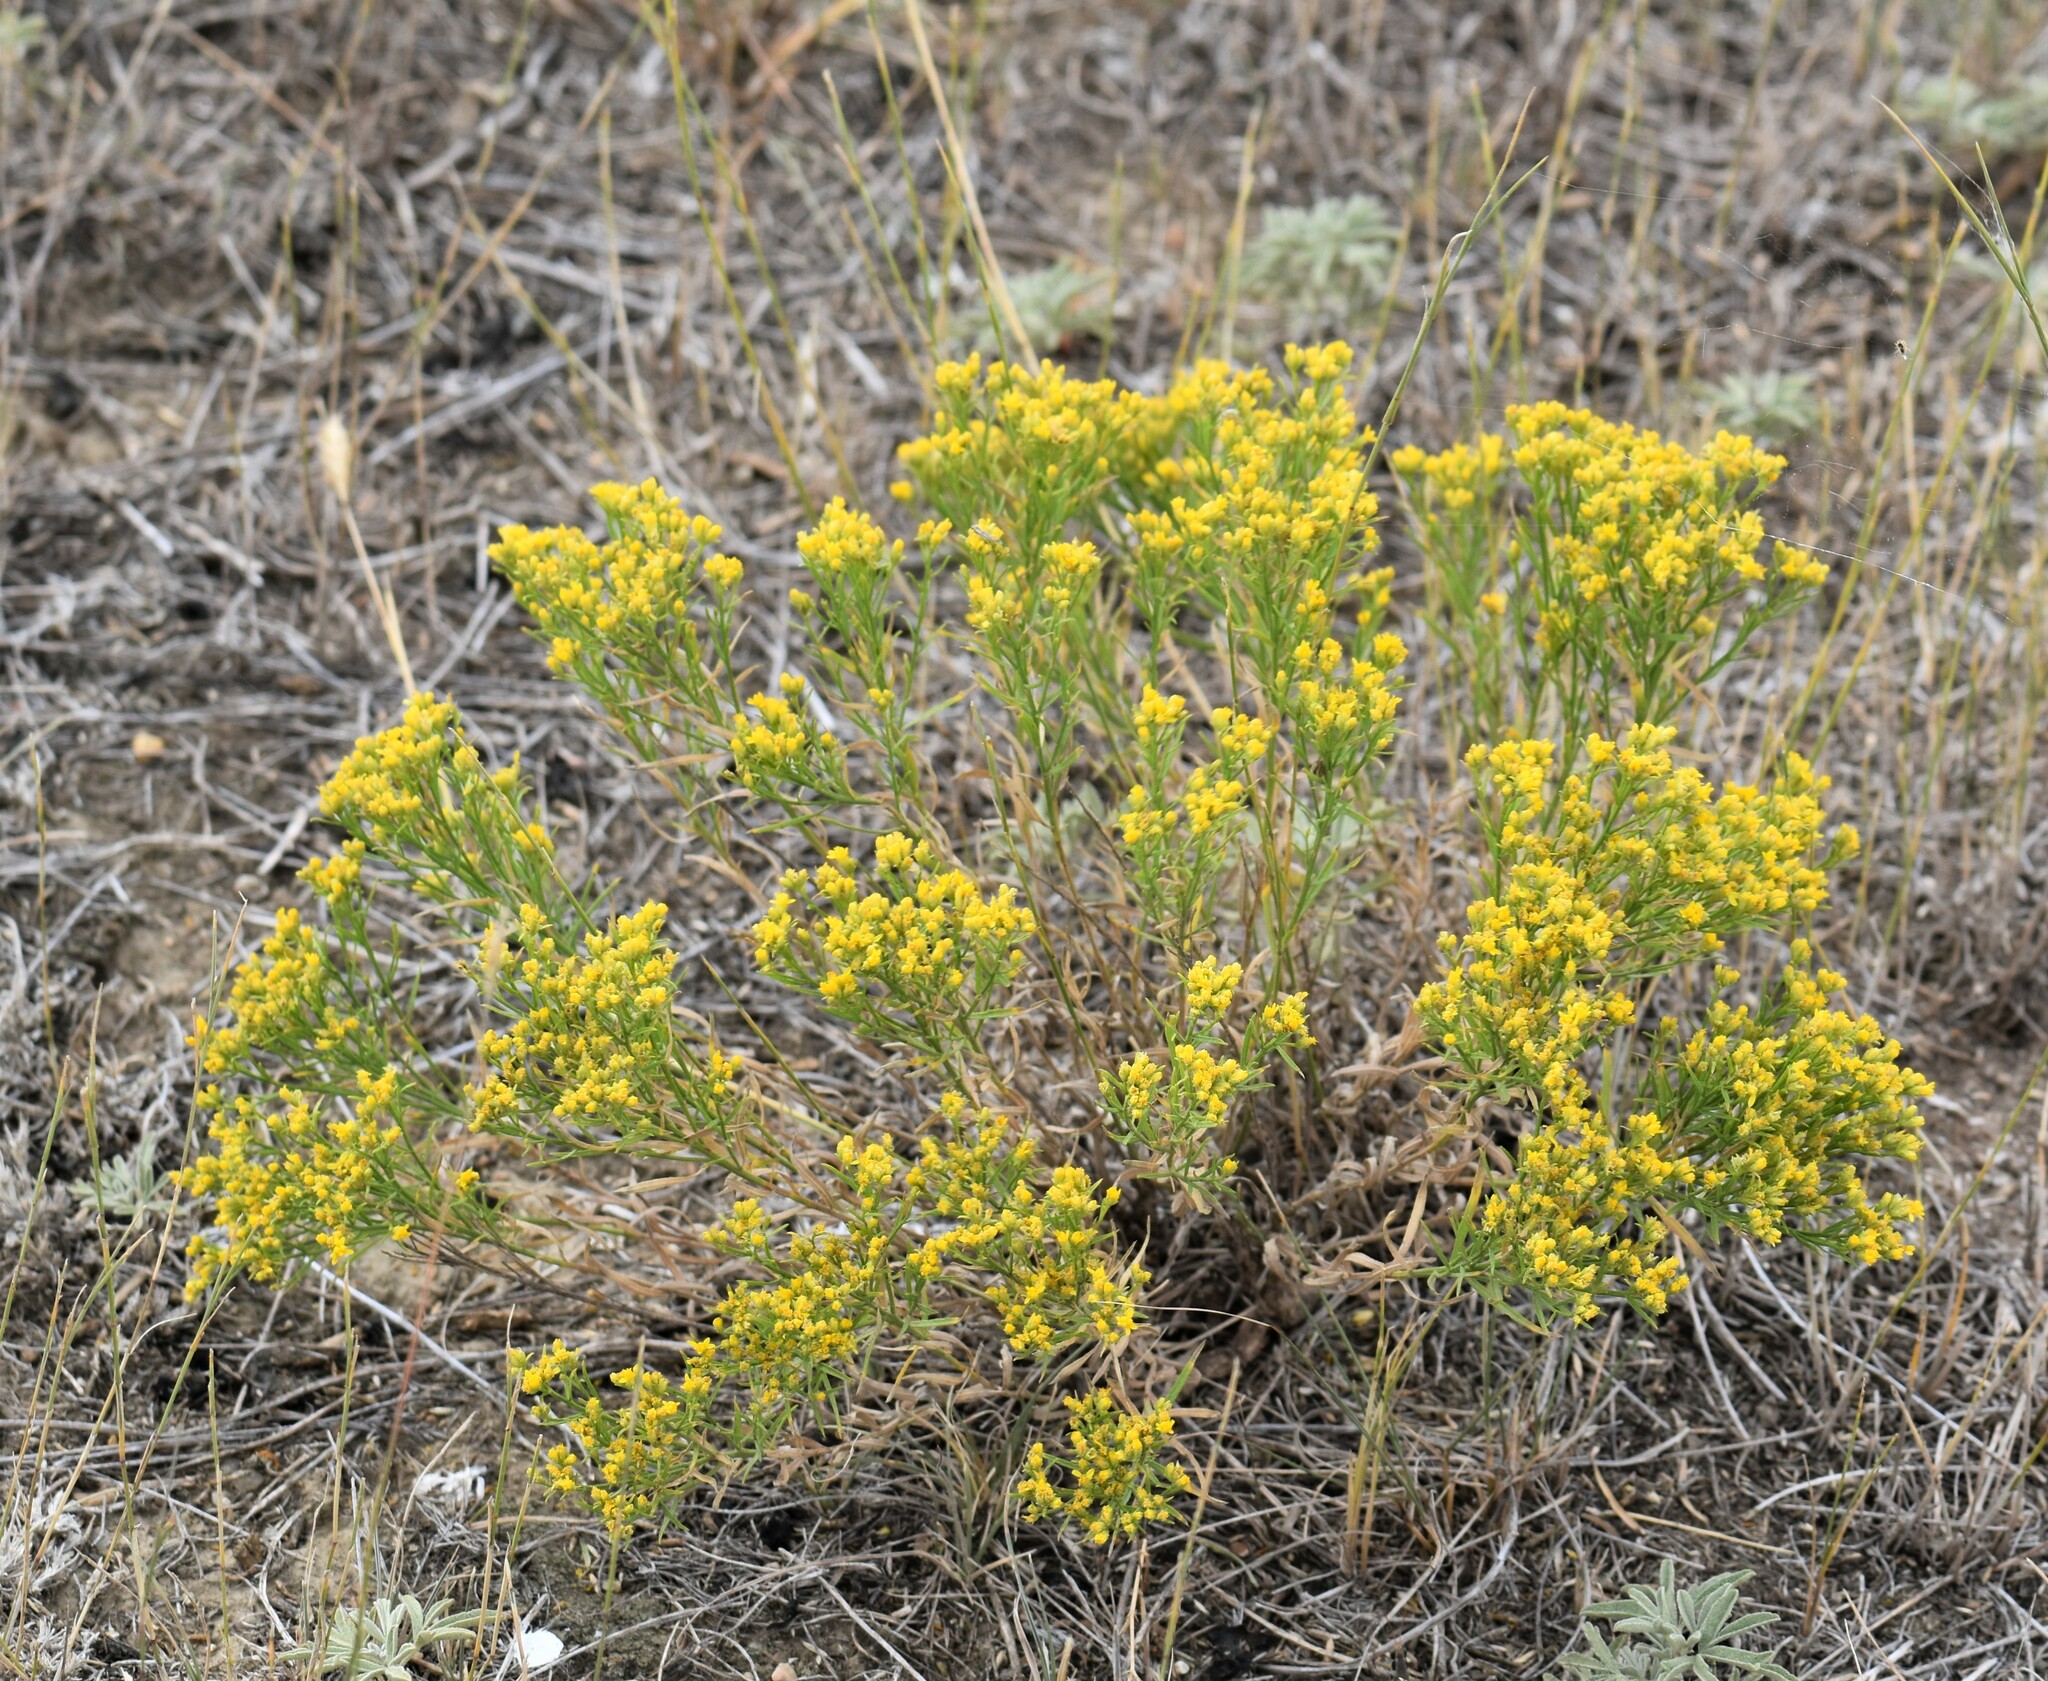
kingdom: Plantae
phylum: Tracheophyta
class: Magnoliopsida
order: Asterales
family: Asteraceae
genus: Gutierrezia
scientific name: Gutierrezia sarothrae
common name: Broom snakeweed
